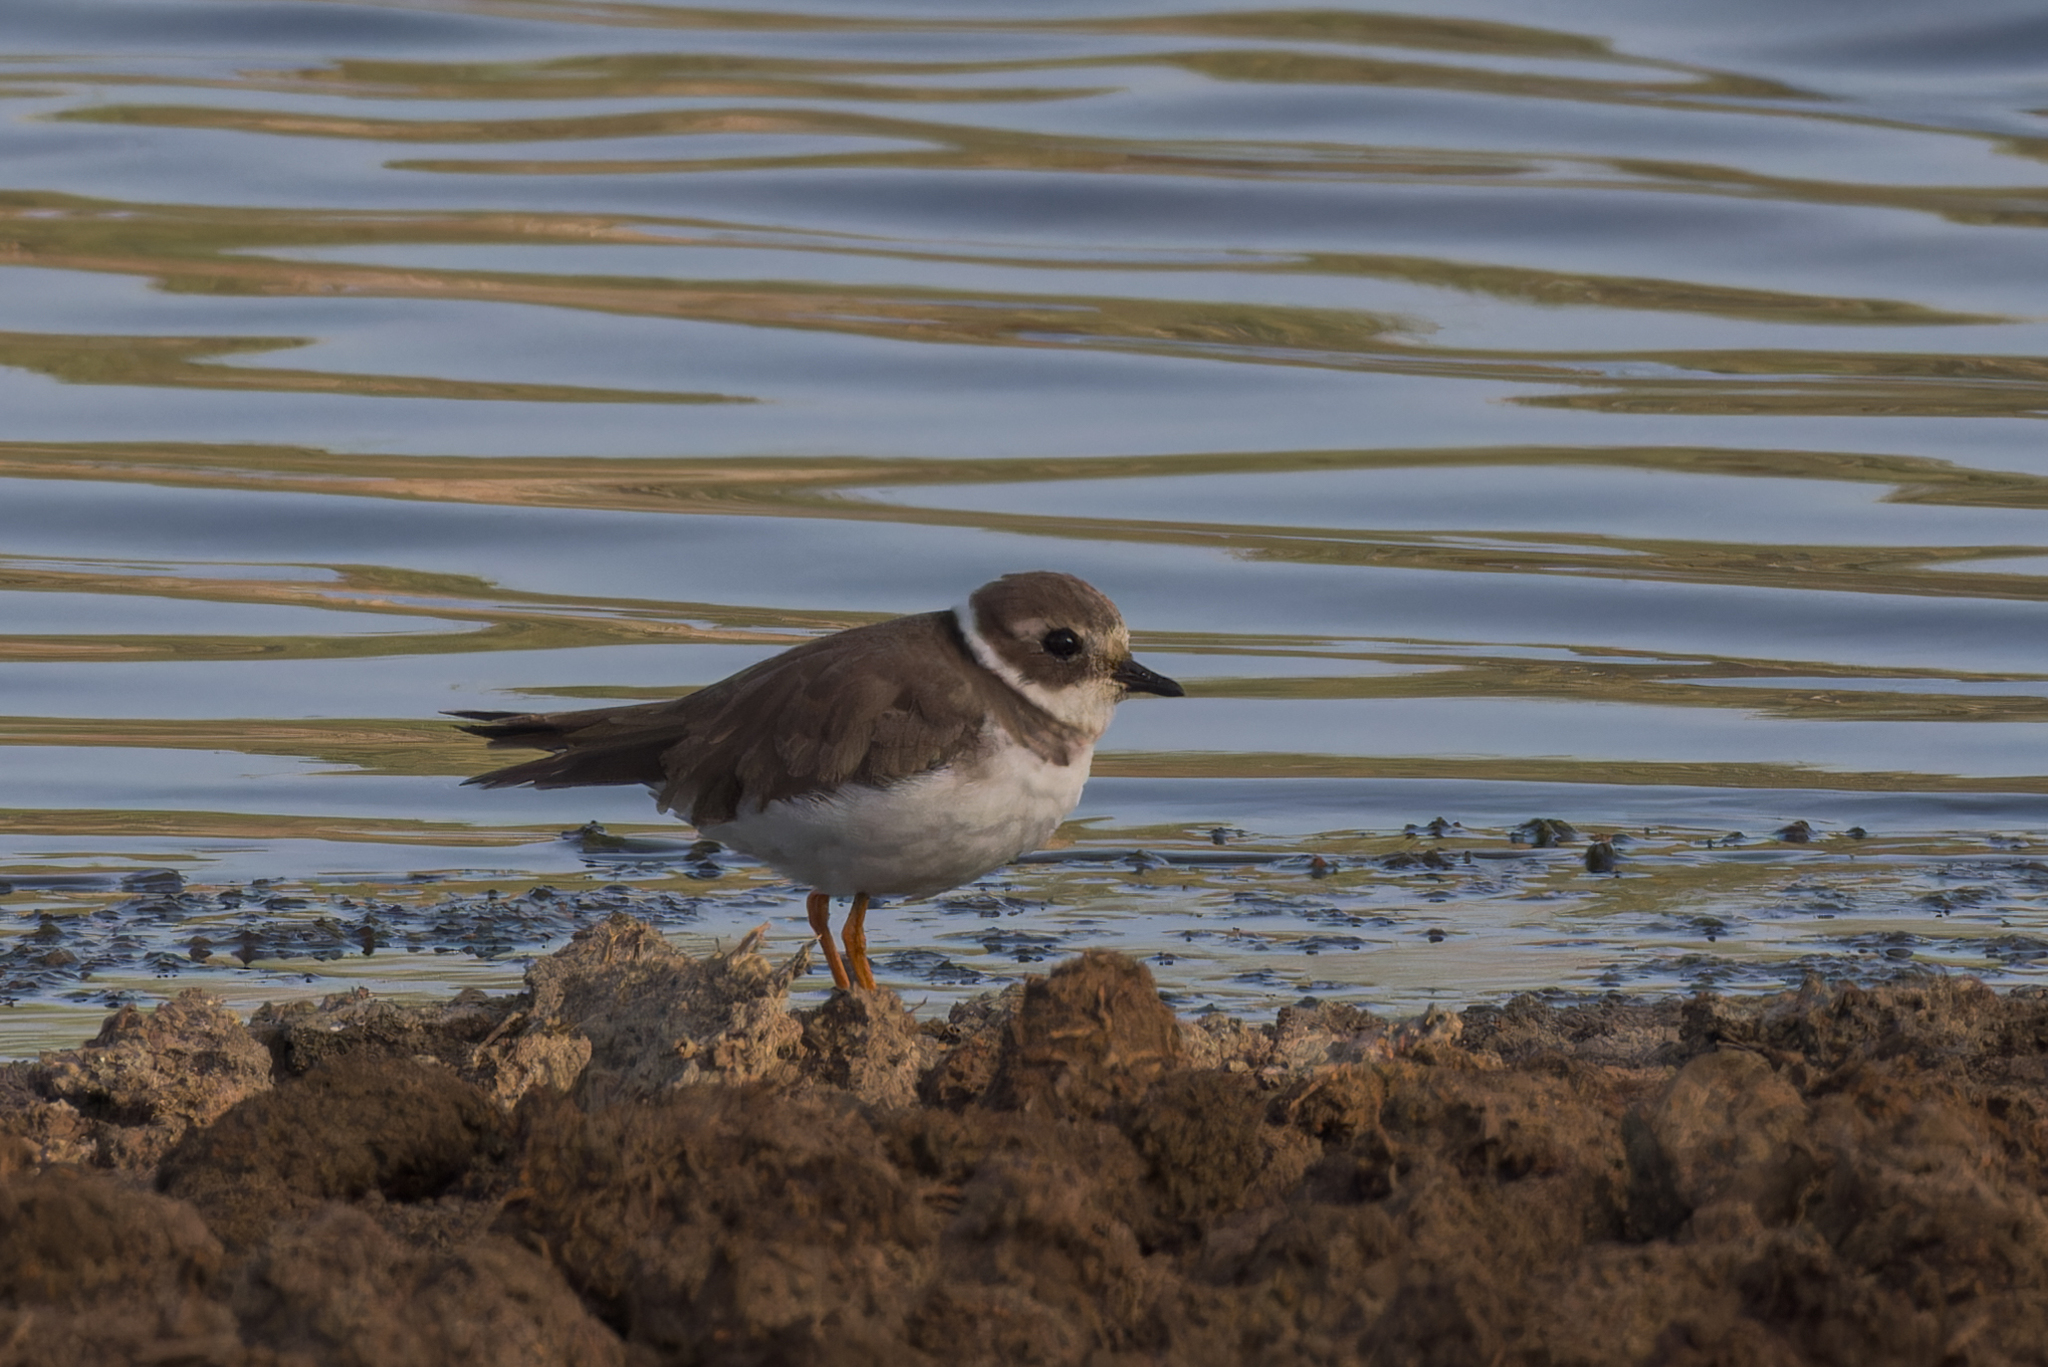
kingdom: Animalia
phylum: Chordata
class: Aves
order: Charadriiformes
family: Charadriidae
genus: Charadrius
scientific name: Charadrius hiaticula
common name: Common ringed plover
